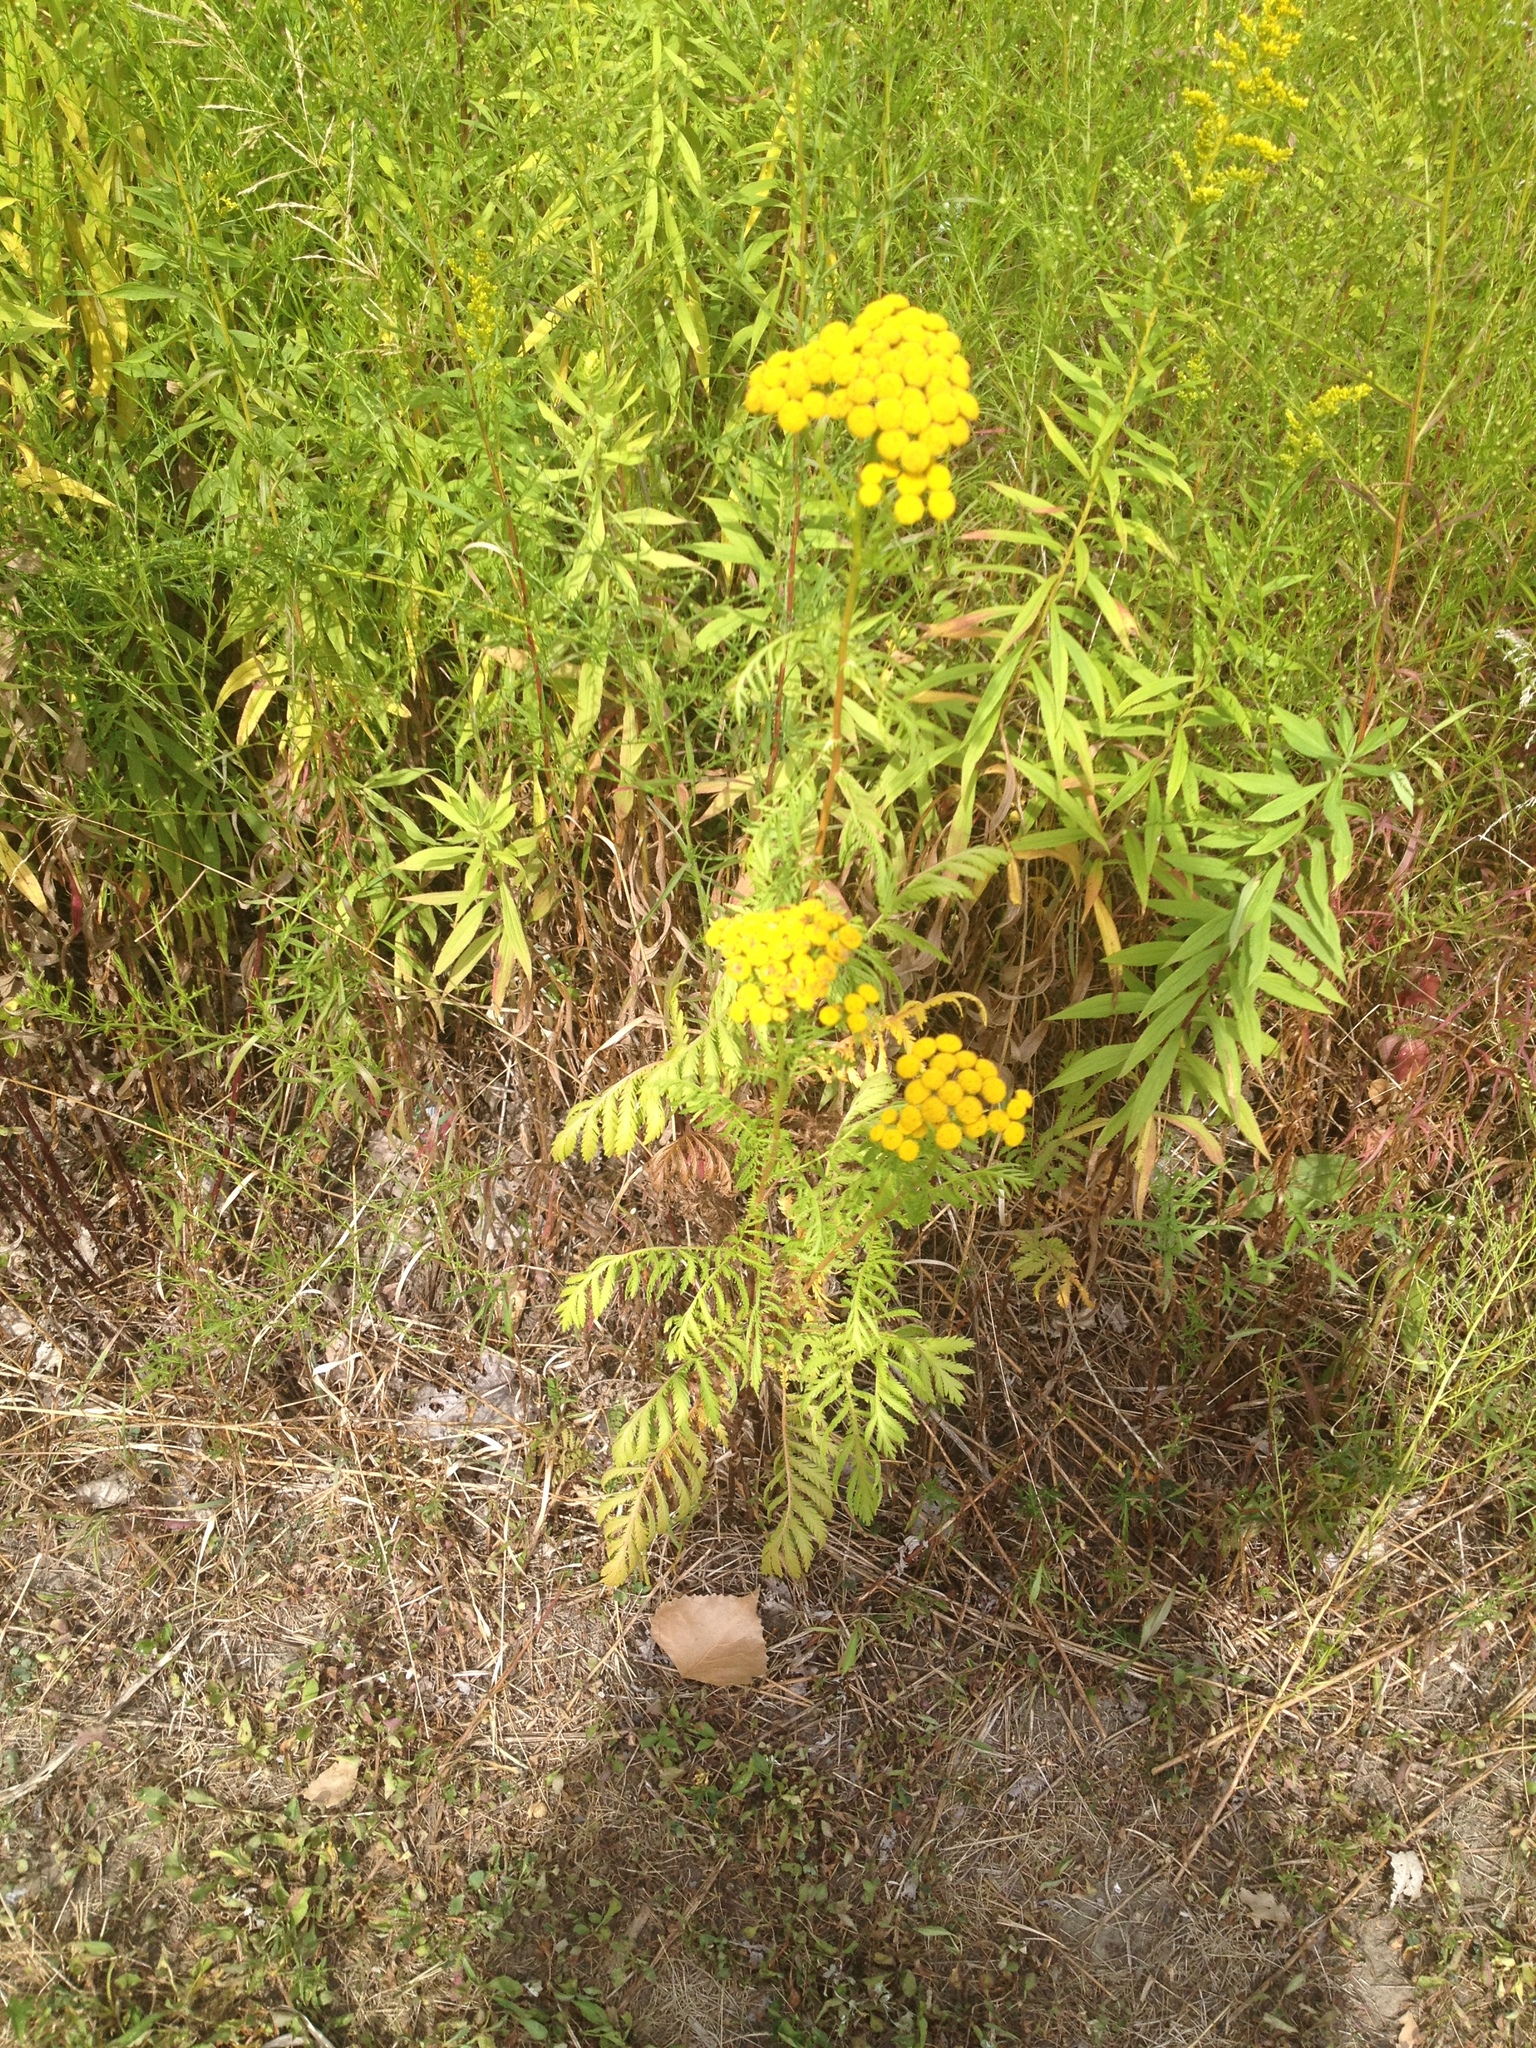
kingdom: Plantae
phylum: Tracheophyta
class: Magnoliopsida
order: Asterales
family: Asteraceae
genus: Tanacetum
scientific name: Tanacetum vulgare
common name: Common tansy
